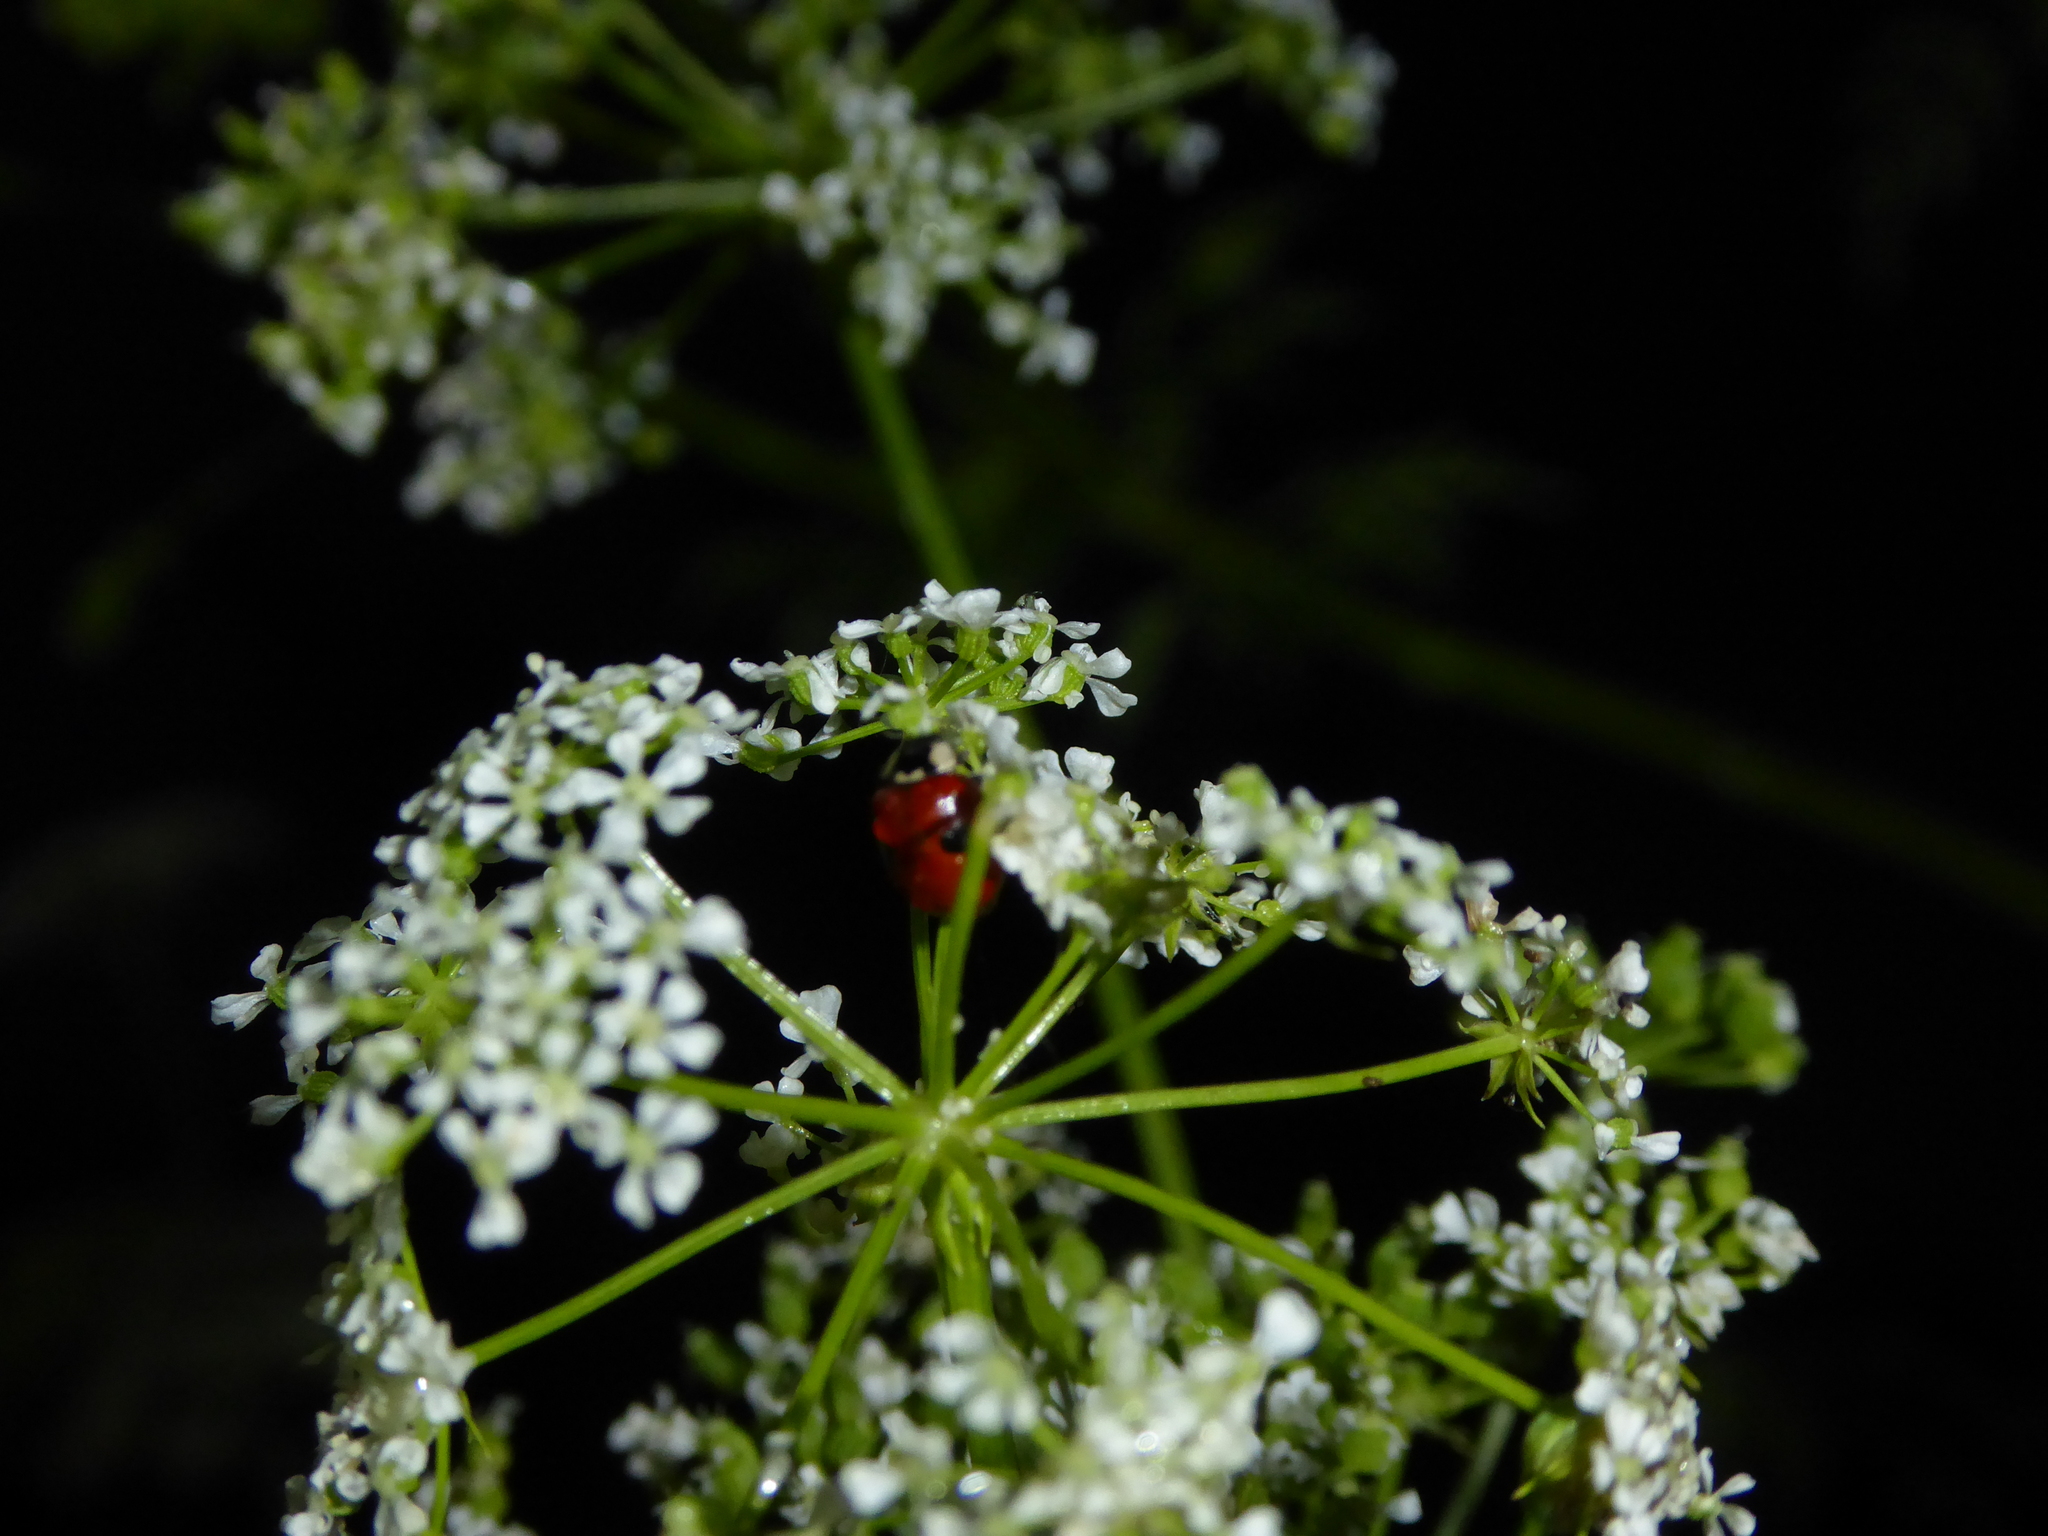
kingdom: Animalia
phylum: Arthropoda
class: Insecta
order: Coleoptera
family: Coccinellidae
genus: Adalia
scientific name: Adalia bipunctata
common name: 2-spot ladybird
